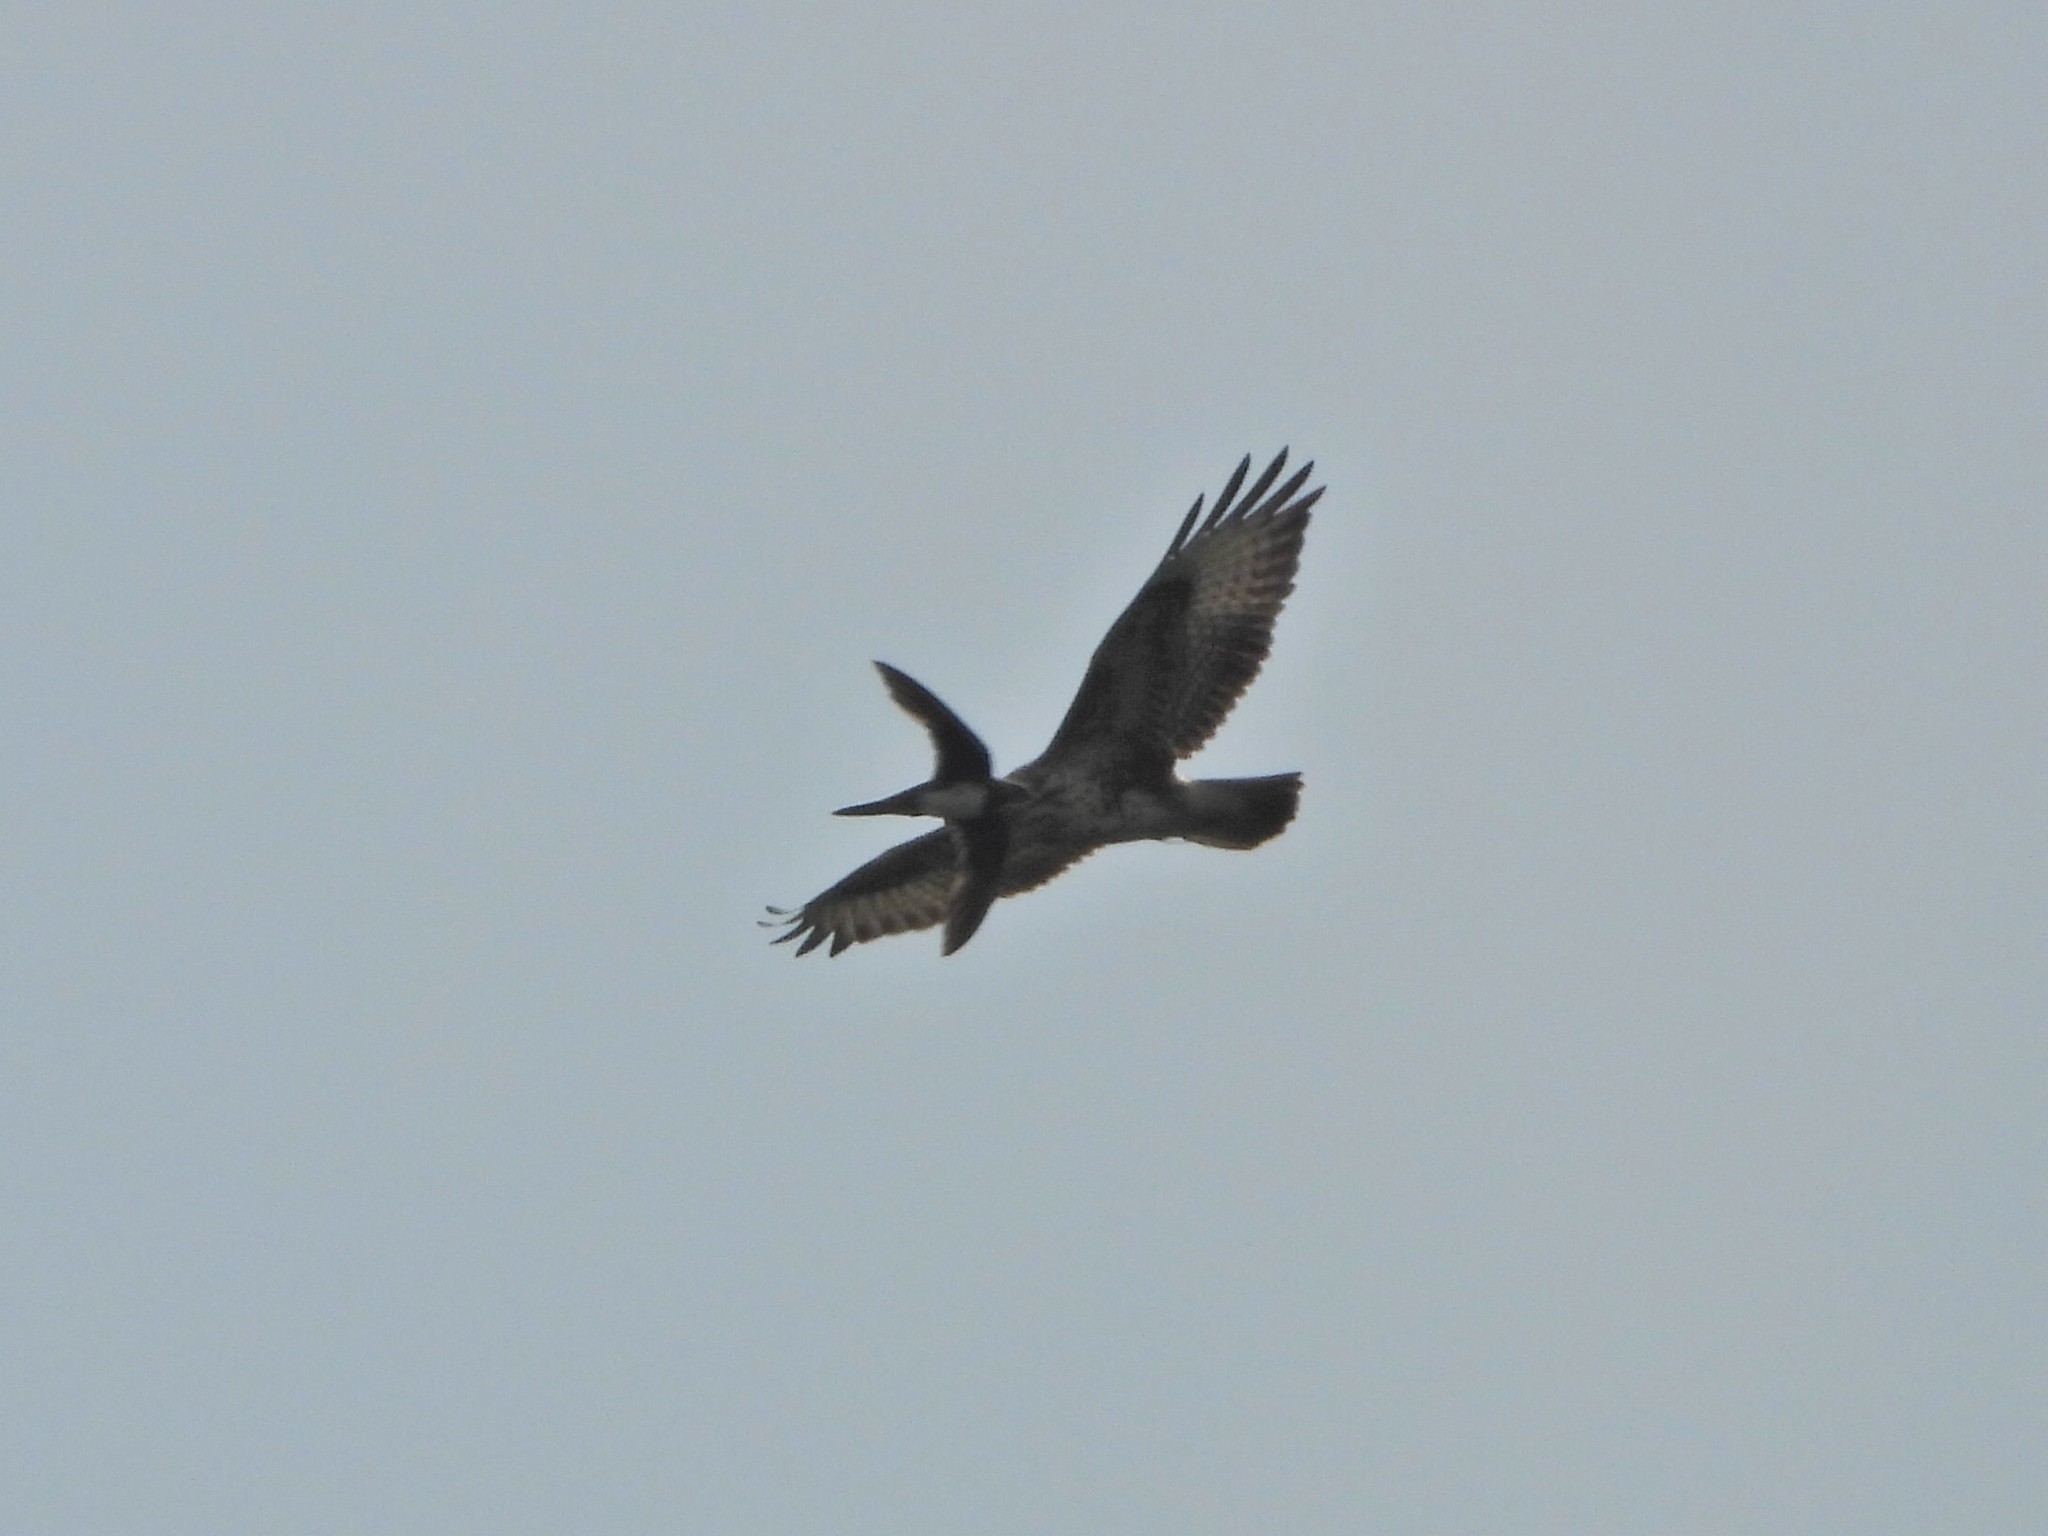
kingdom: Animalia
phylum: Chordata
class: Aves
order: Apodiformes
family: Apodidae
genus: Tachymarptis
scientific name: Tachymarptis melba
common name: Alpine swift
